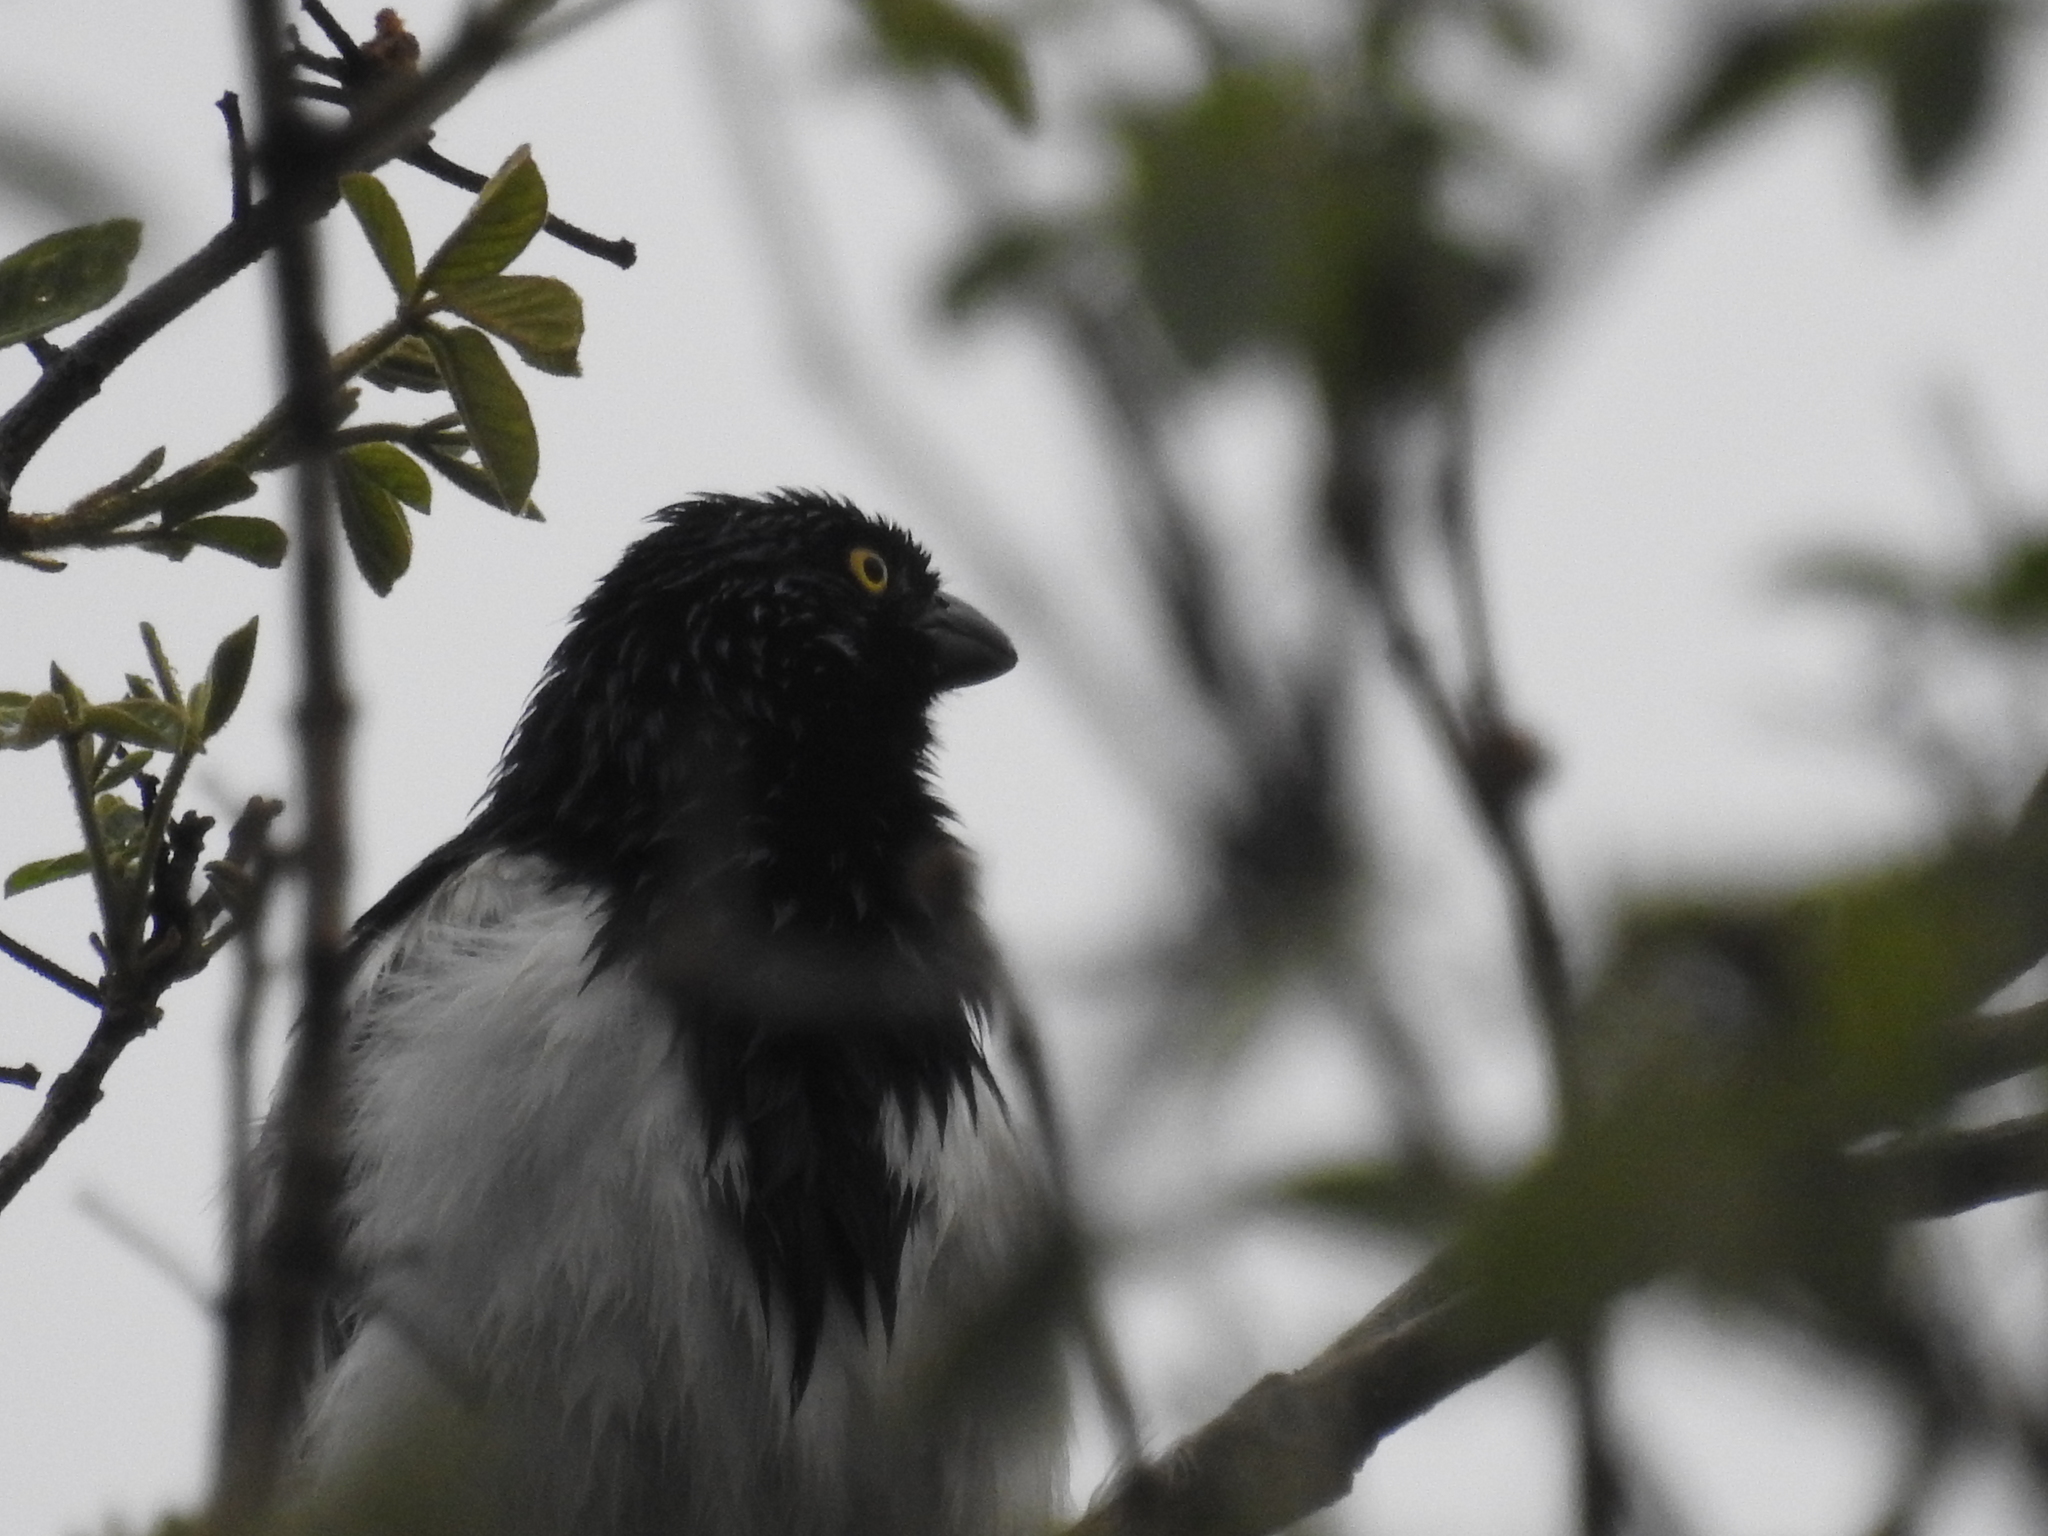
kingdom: Animalia
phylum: Chordata
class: Aves
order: Passeriformes
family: Thraupidae
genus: Cissopis
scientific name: Cissopis leverianus
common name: Magpie tanager
